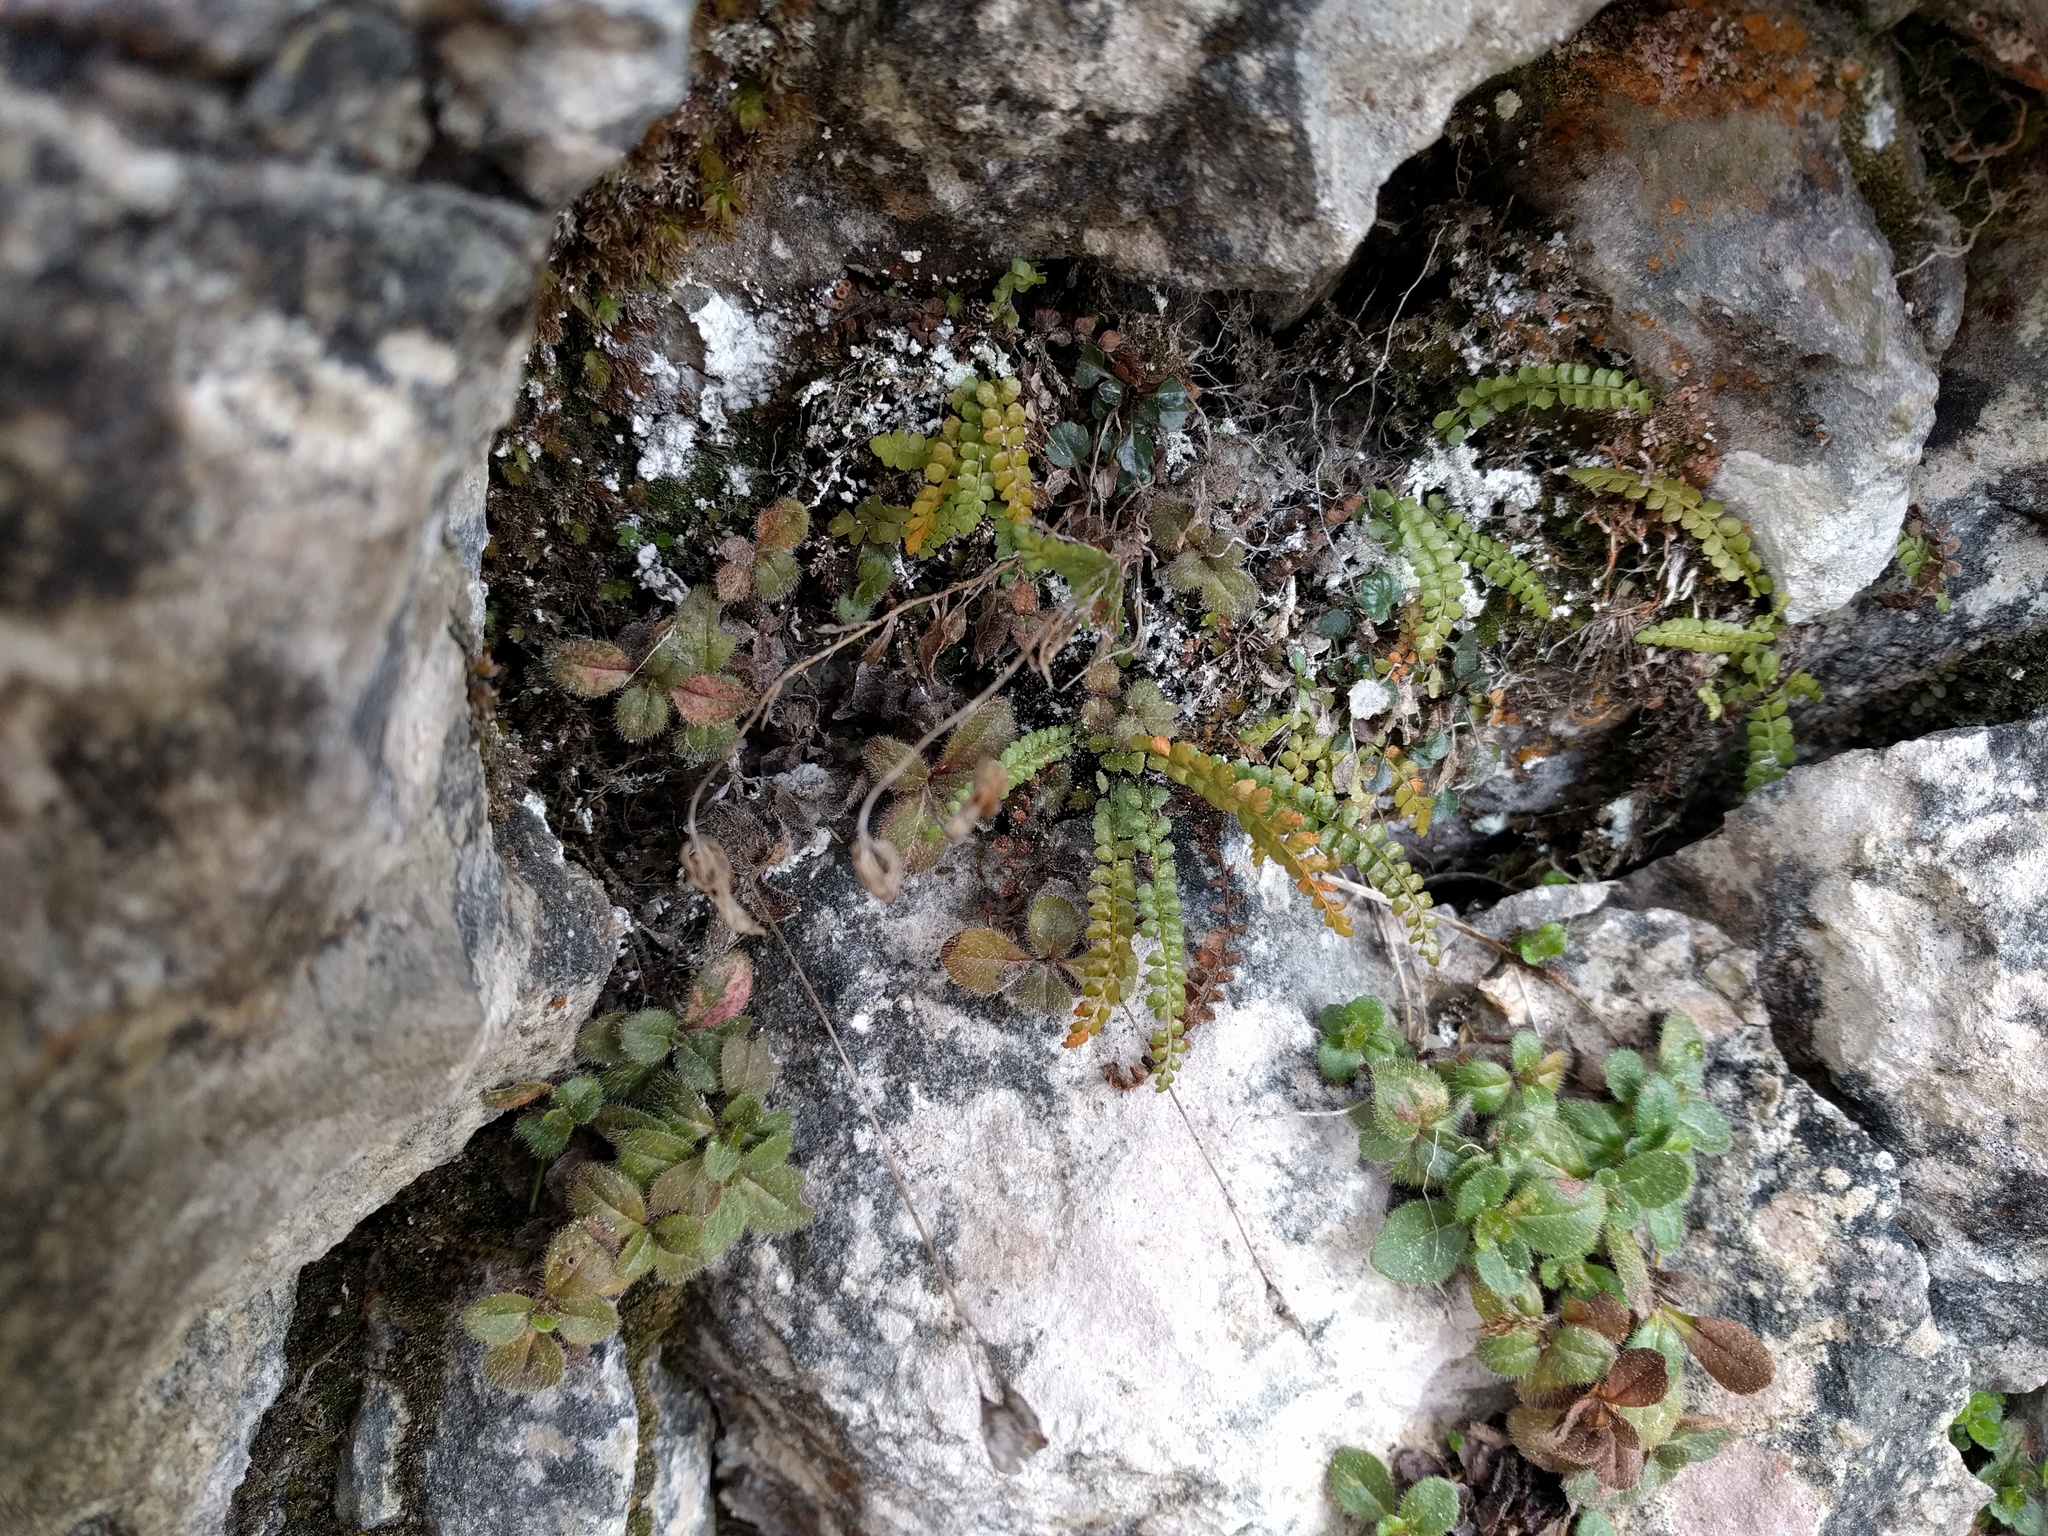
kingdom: Plantae
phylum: Tracheophyta
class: Polypodiopsida
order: Polypodiales
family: Aspleniaceae
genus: Asplenium
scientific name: Asplenium viride
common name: Green spleenwort
